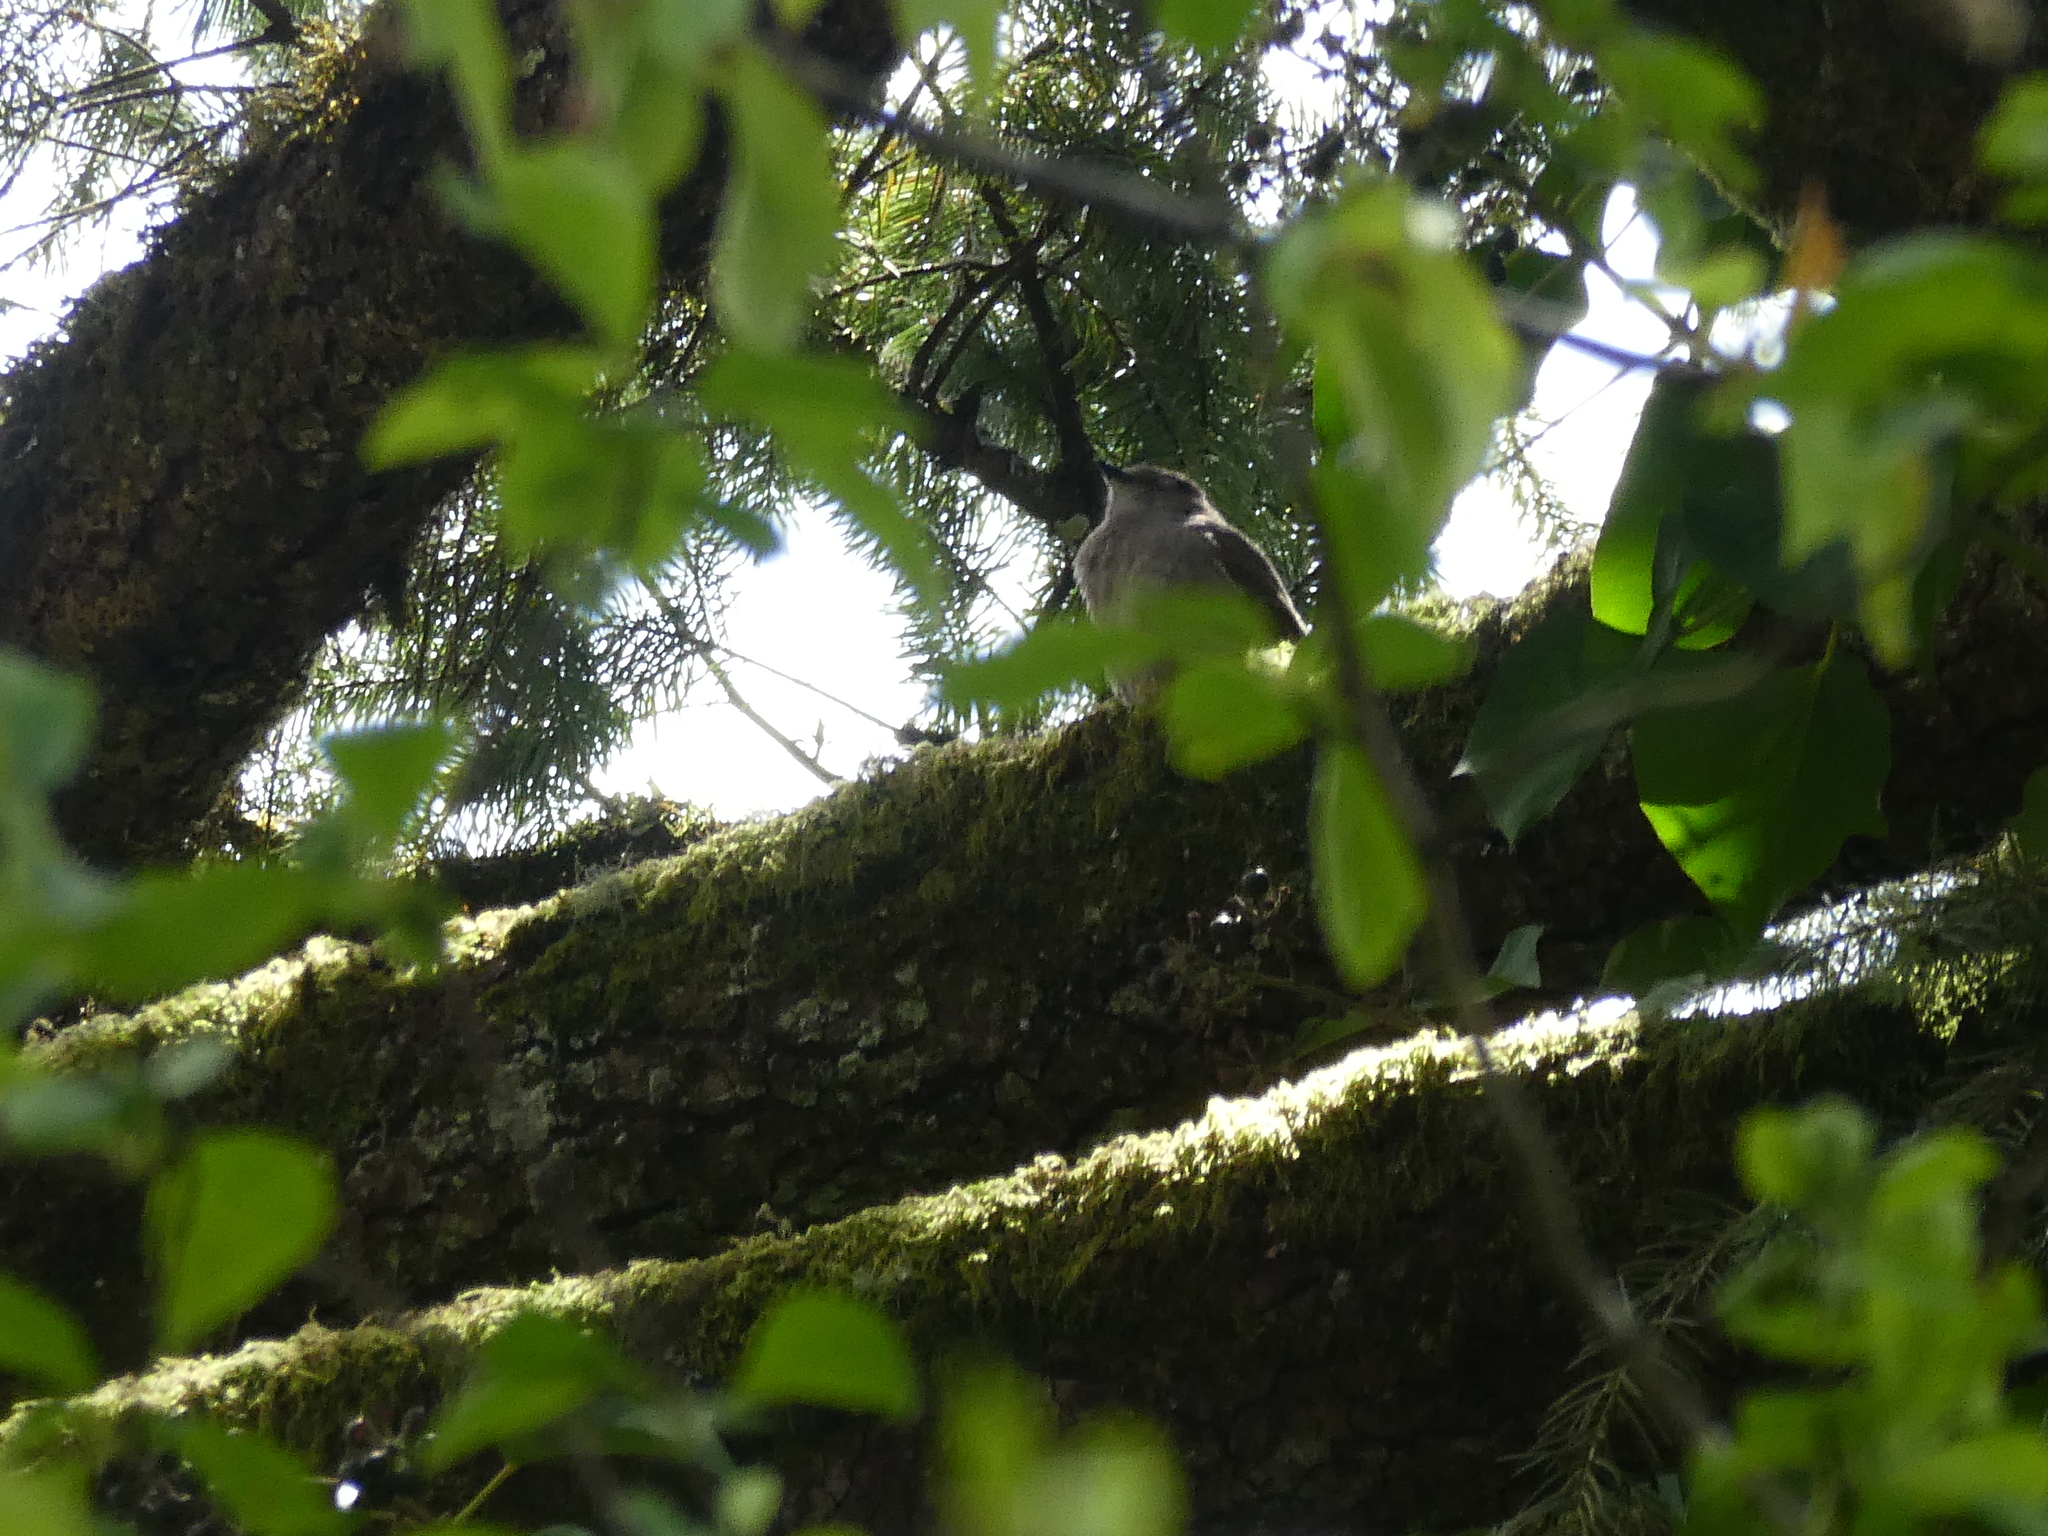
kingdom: Animalia
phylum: Chordata
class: Aves
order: Passeriformes
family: Turdidae
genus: Myadestes
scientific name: Myadestes townsendi
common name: Townsend's solitaire
